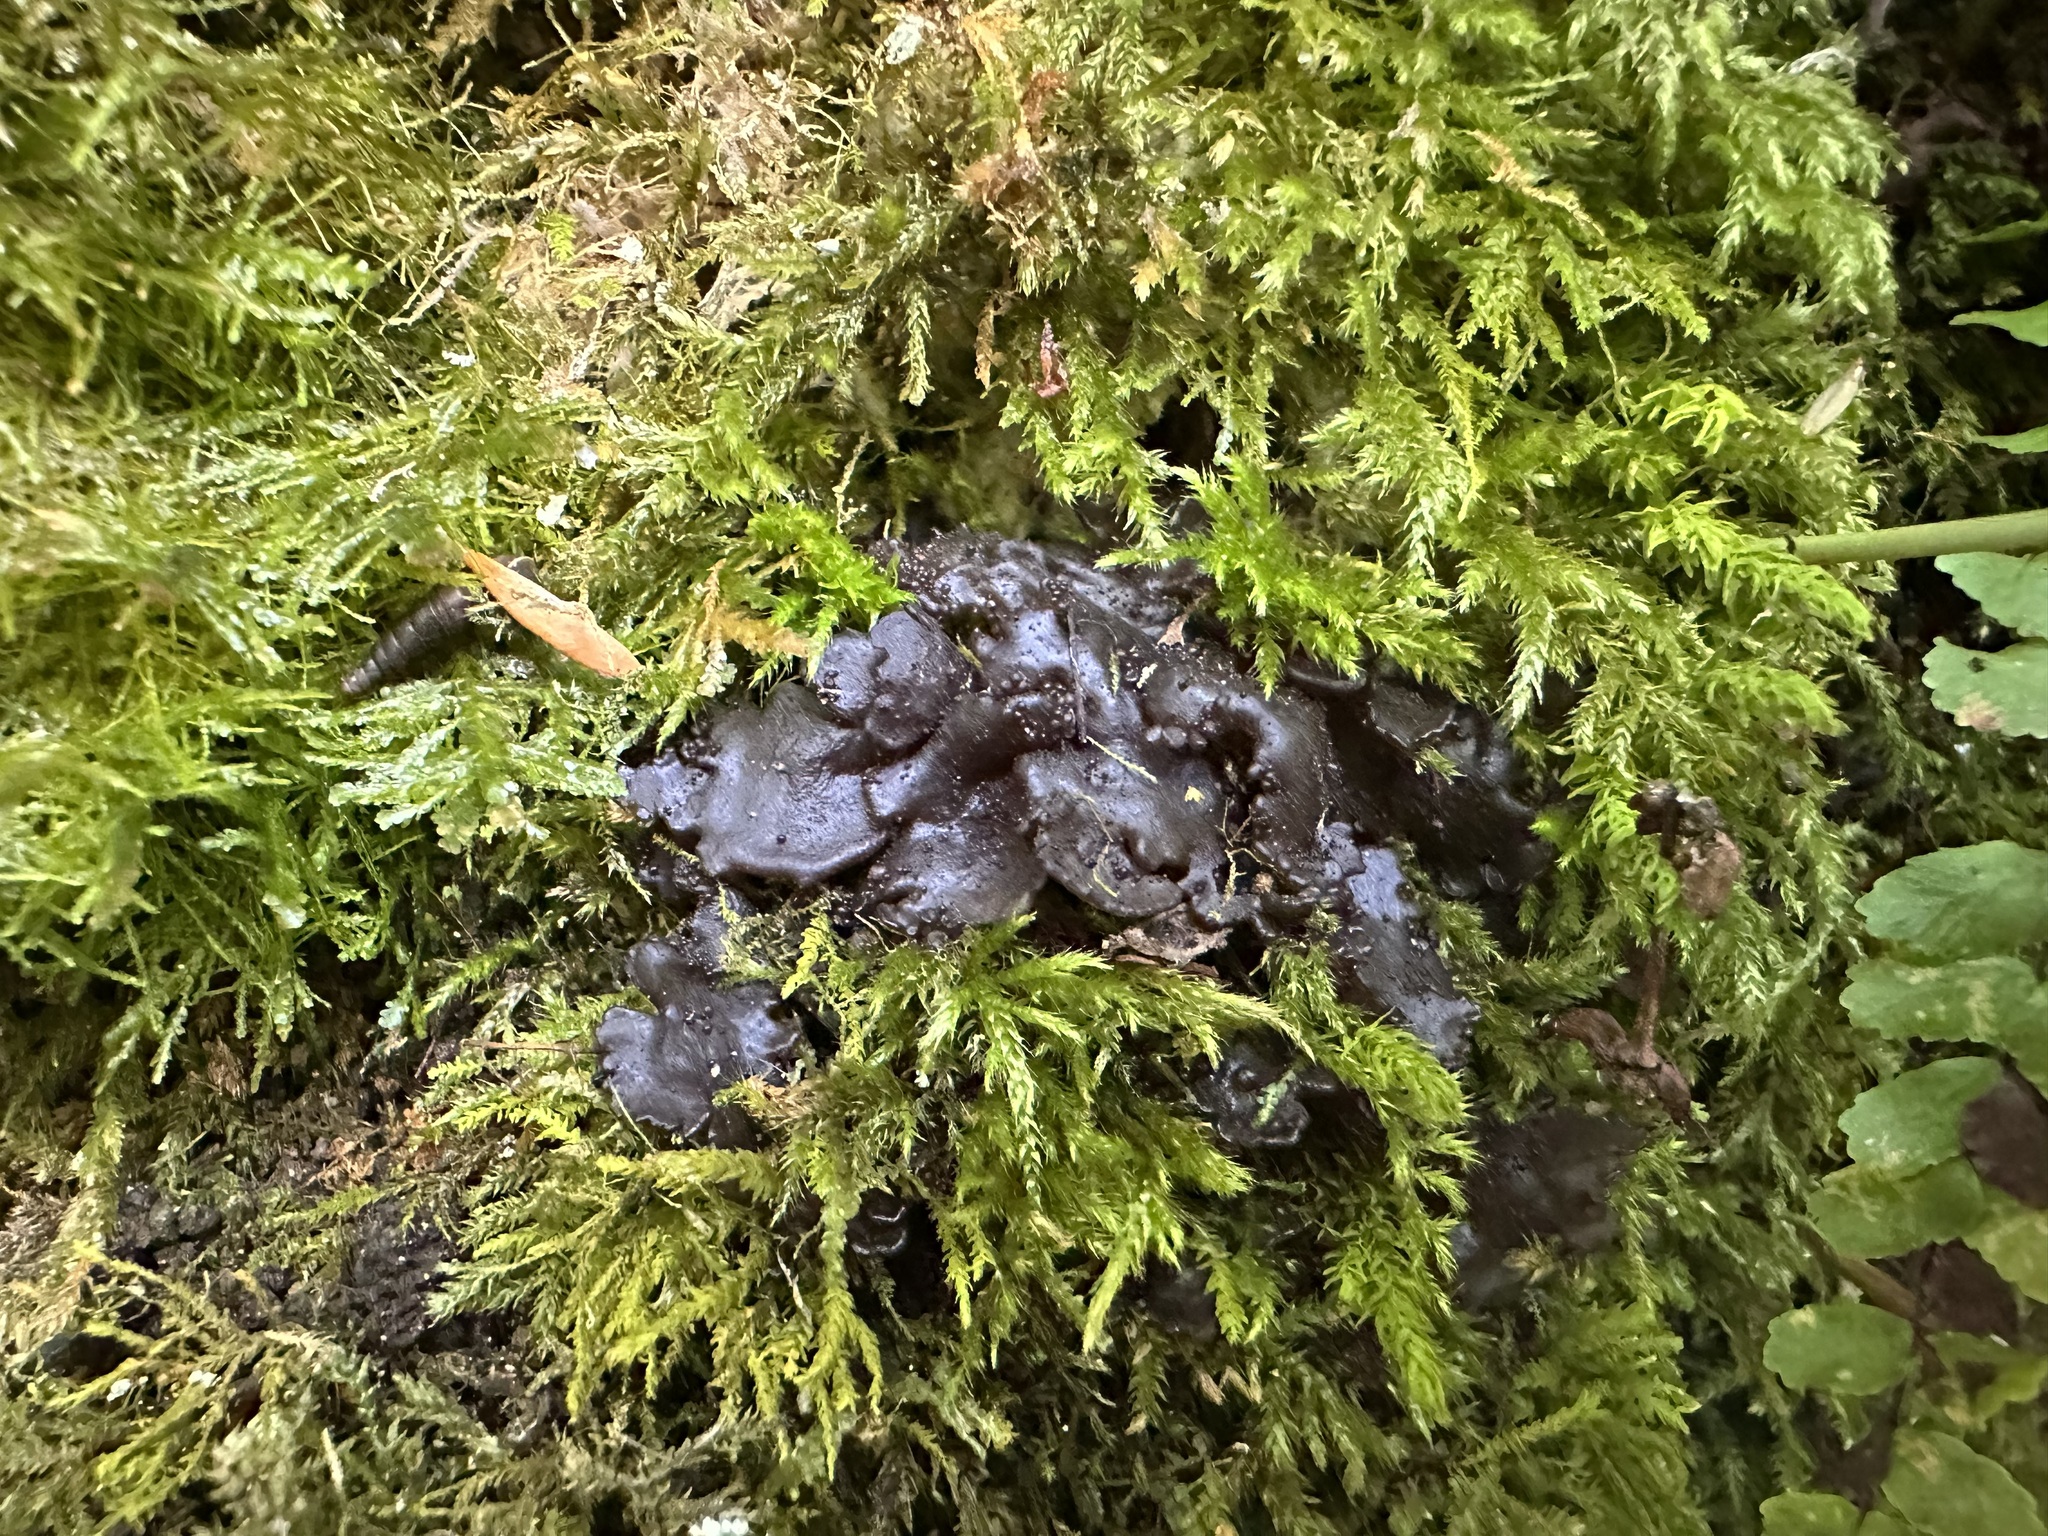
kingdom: Fungi
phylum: Ascomycota
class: Lecanoromycetes
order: Peltigerales
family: Collemataceae
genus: Lathagrium
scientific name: Lathagrium auriforme
